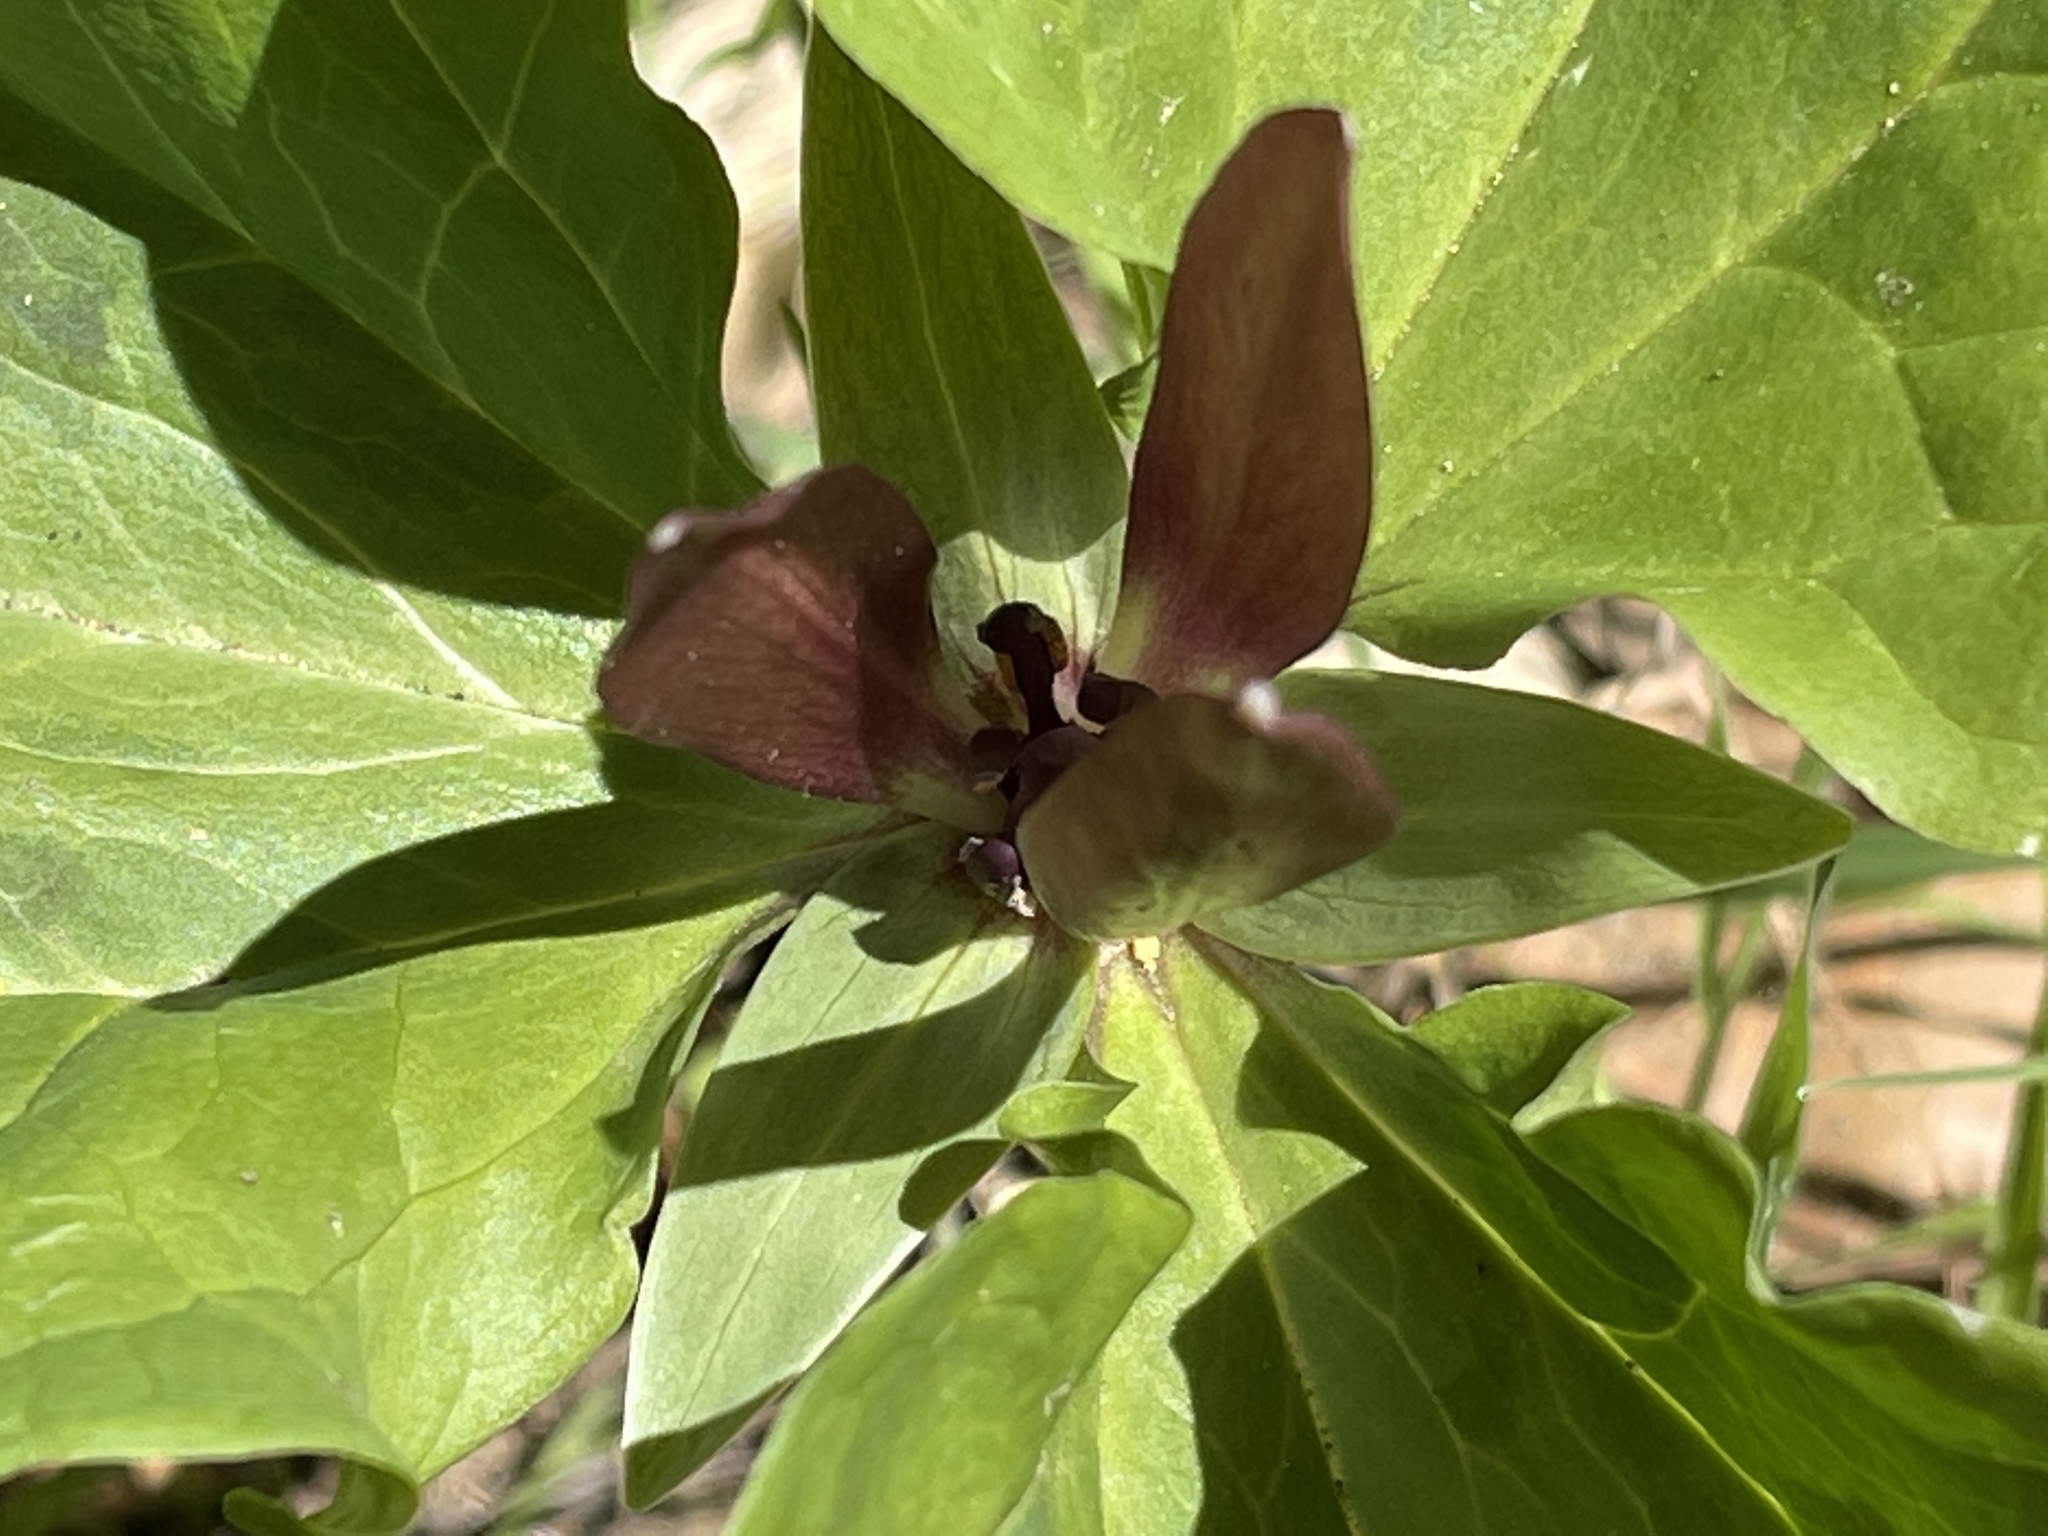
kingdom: Plantae
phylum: Tracheophyta
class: Liliopsida
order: Liliales
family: Melanthiaceae
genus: Trillium
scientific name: Trillium chloropetalum
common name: Giant trillium
